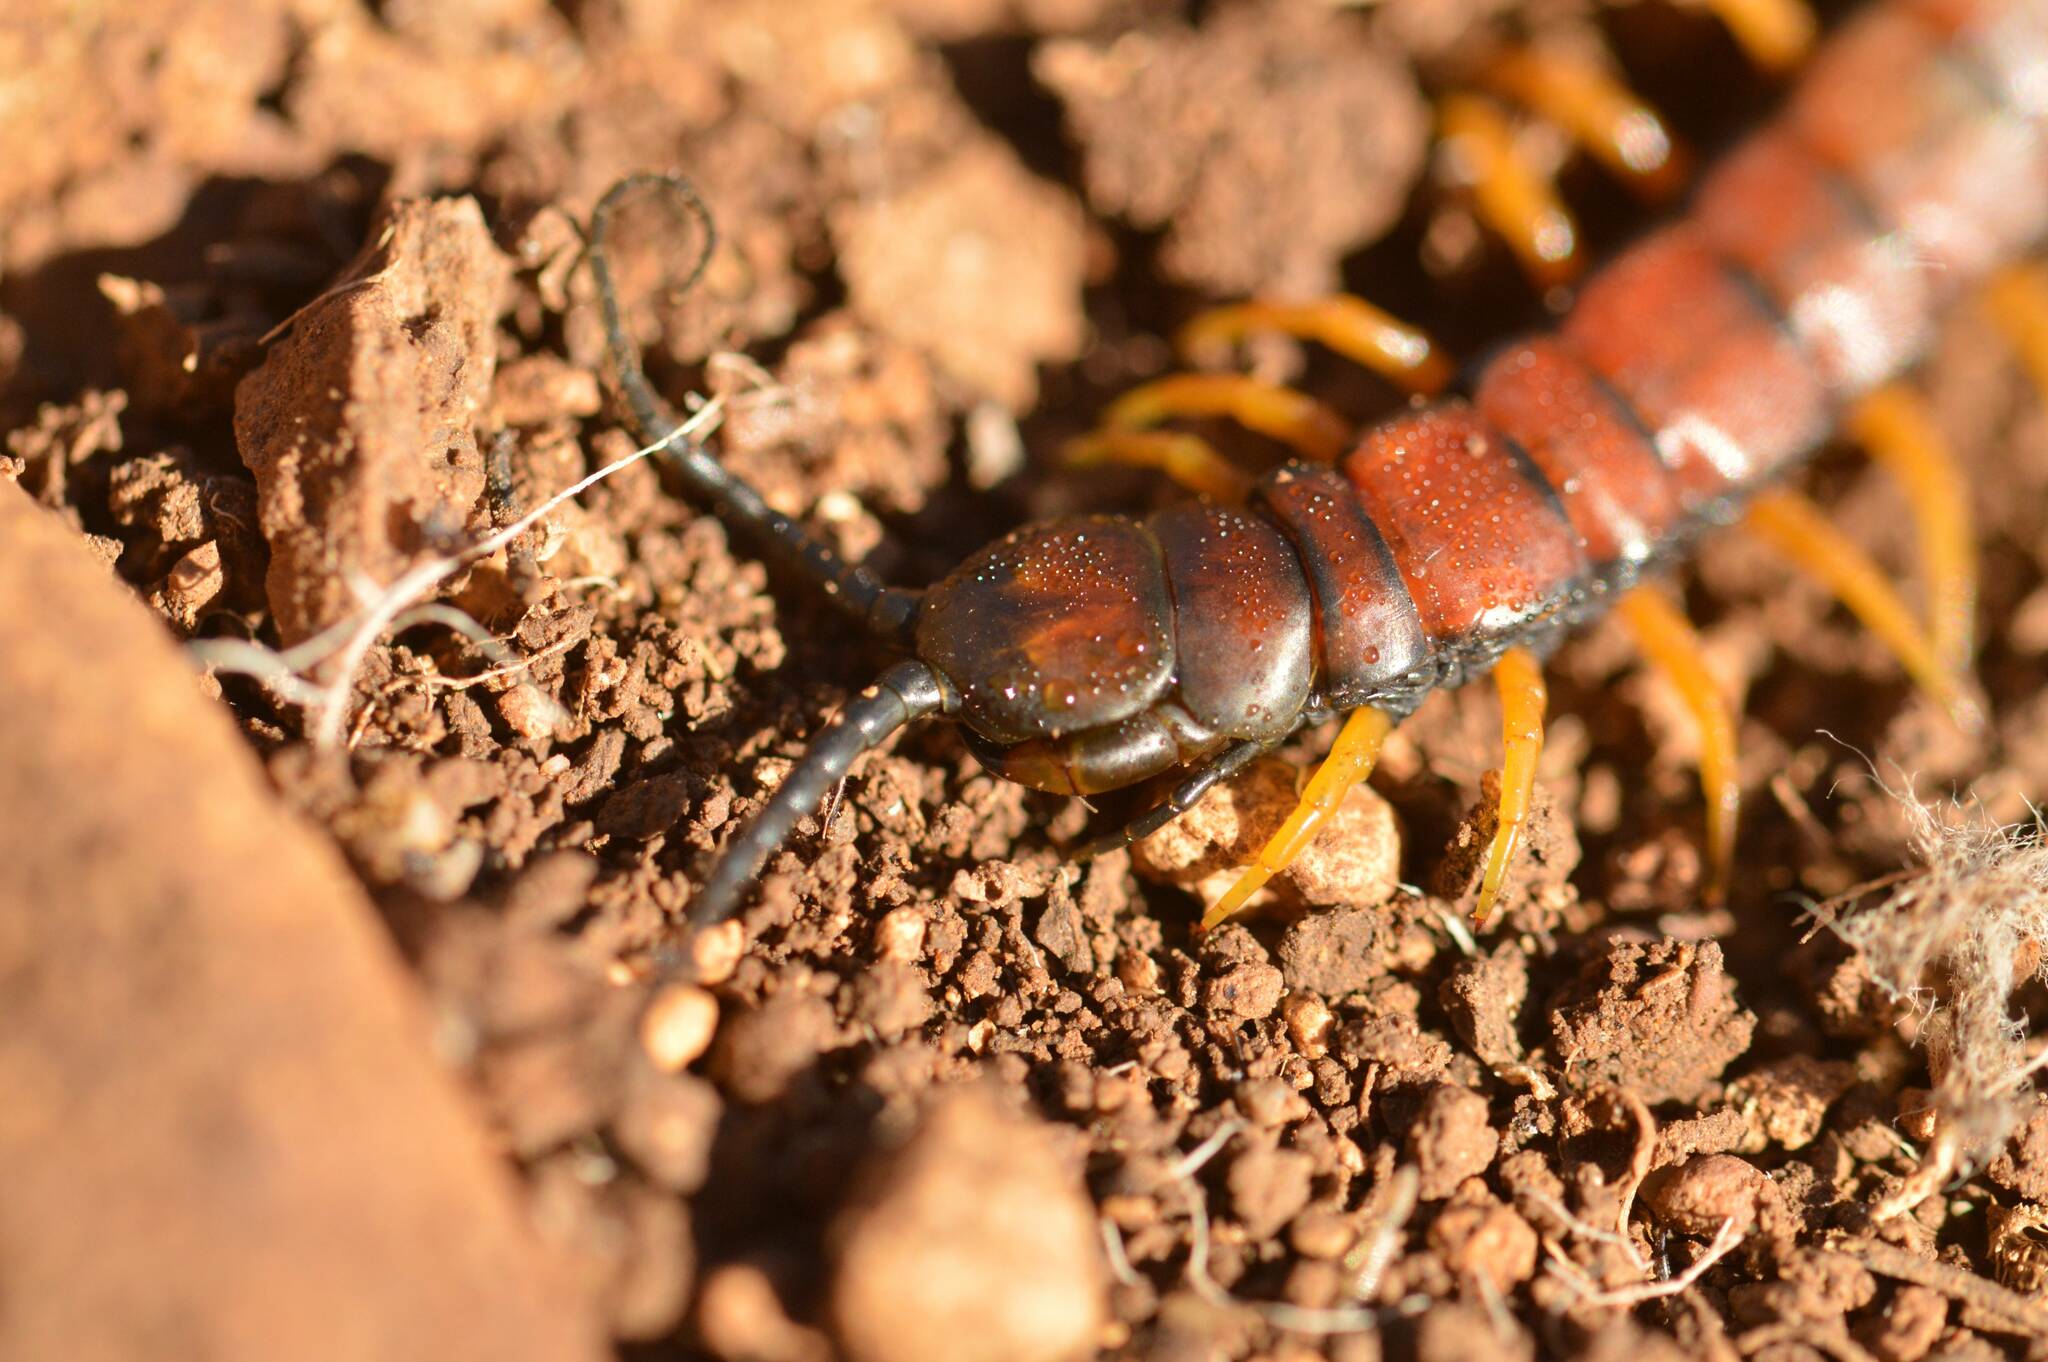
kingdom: Animalia
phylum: Arthropoda
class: Chilopoda
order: Scolopendromorpha
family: Scolopendridae
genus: Scolopendra
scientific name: Scolopendra cingulata
